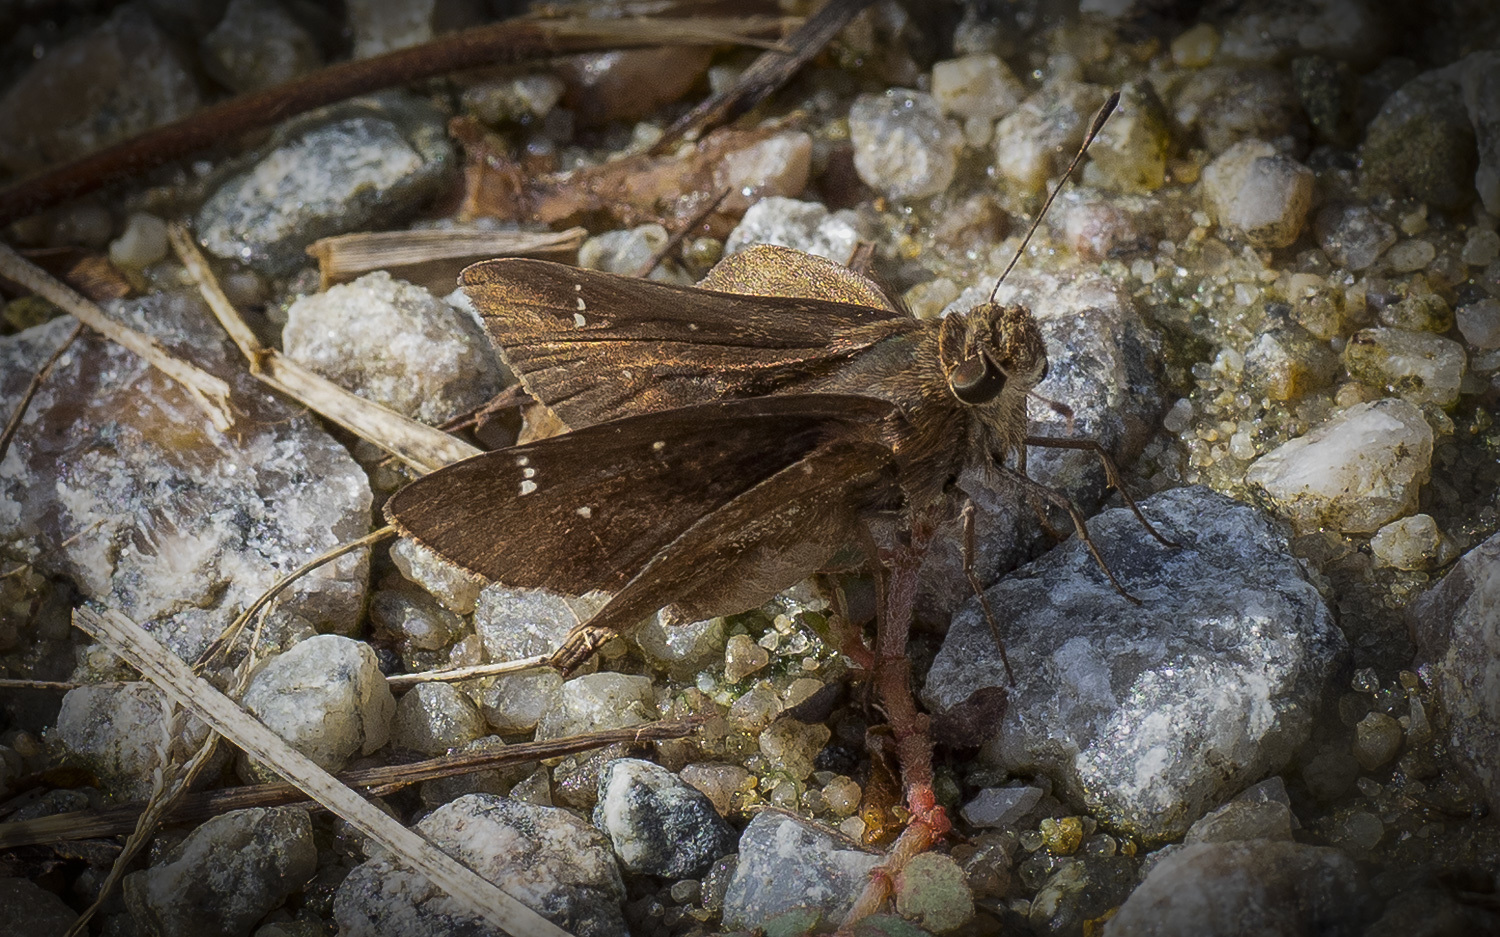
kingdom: Animalia
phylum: Arthropoda
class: Insecta
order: Lepidoptera
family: Hesperiidae
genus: Lerema
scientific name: Lerema accius
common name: Clouded skipper
